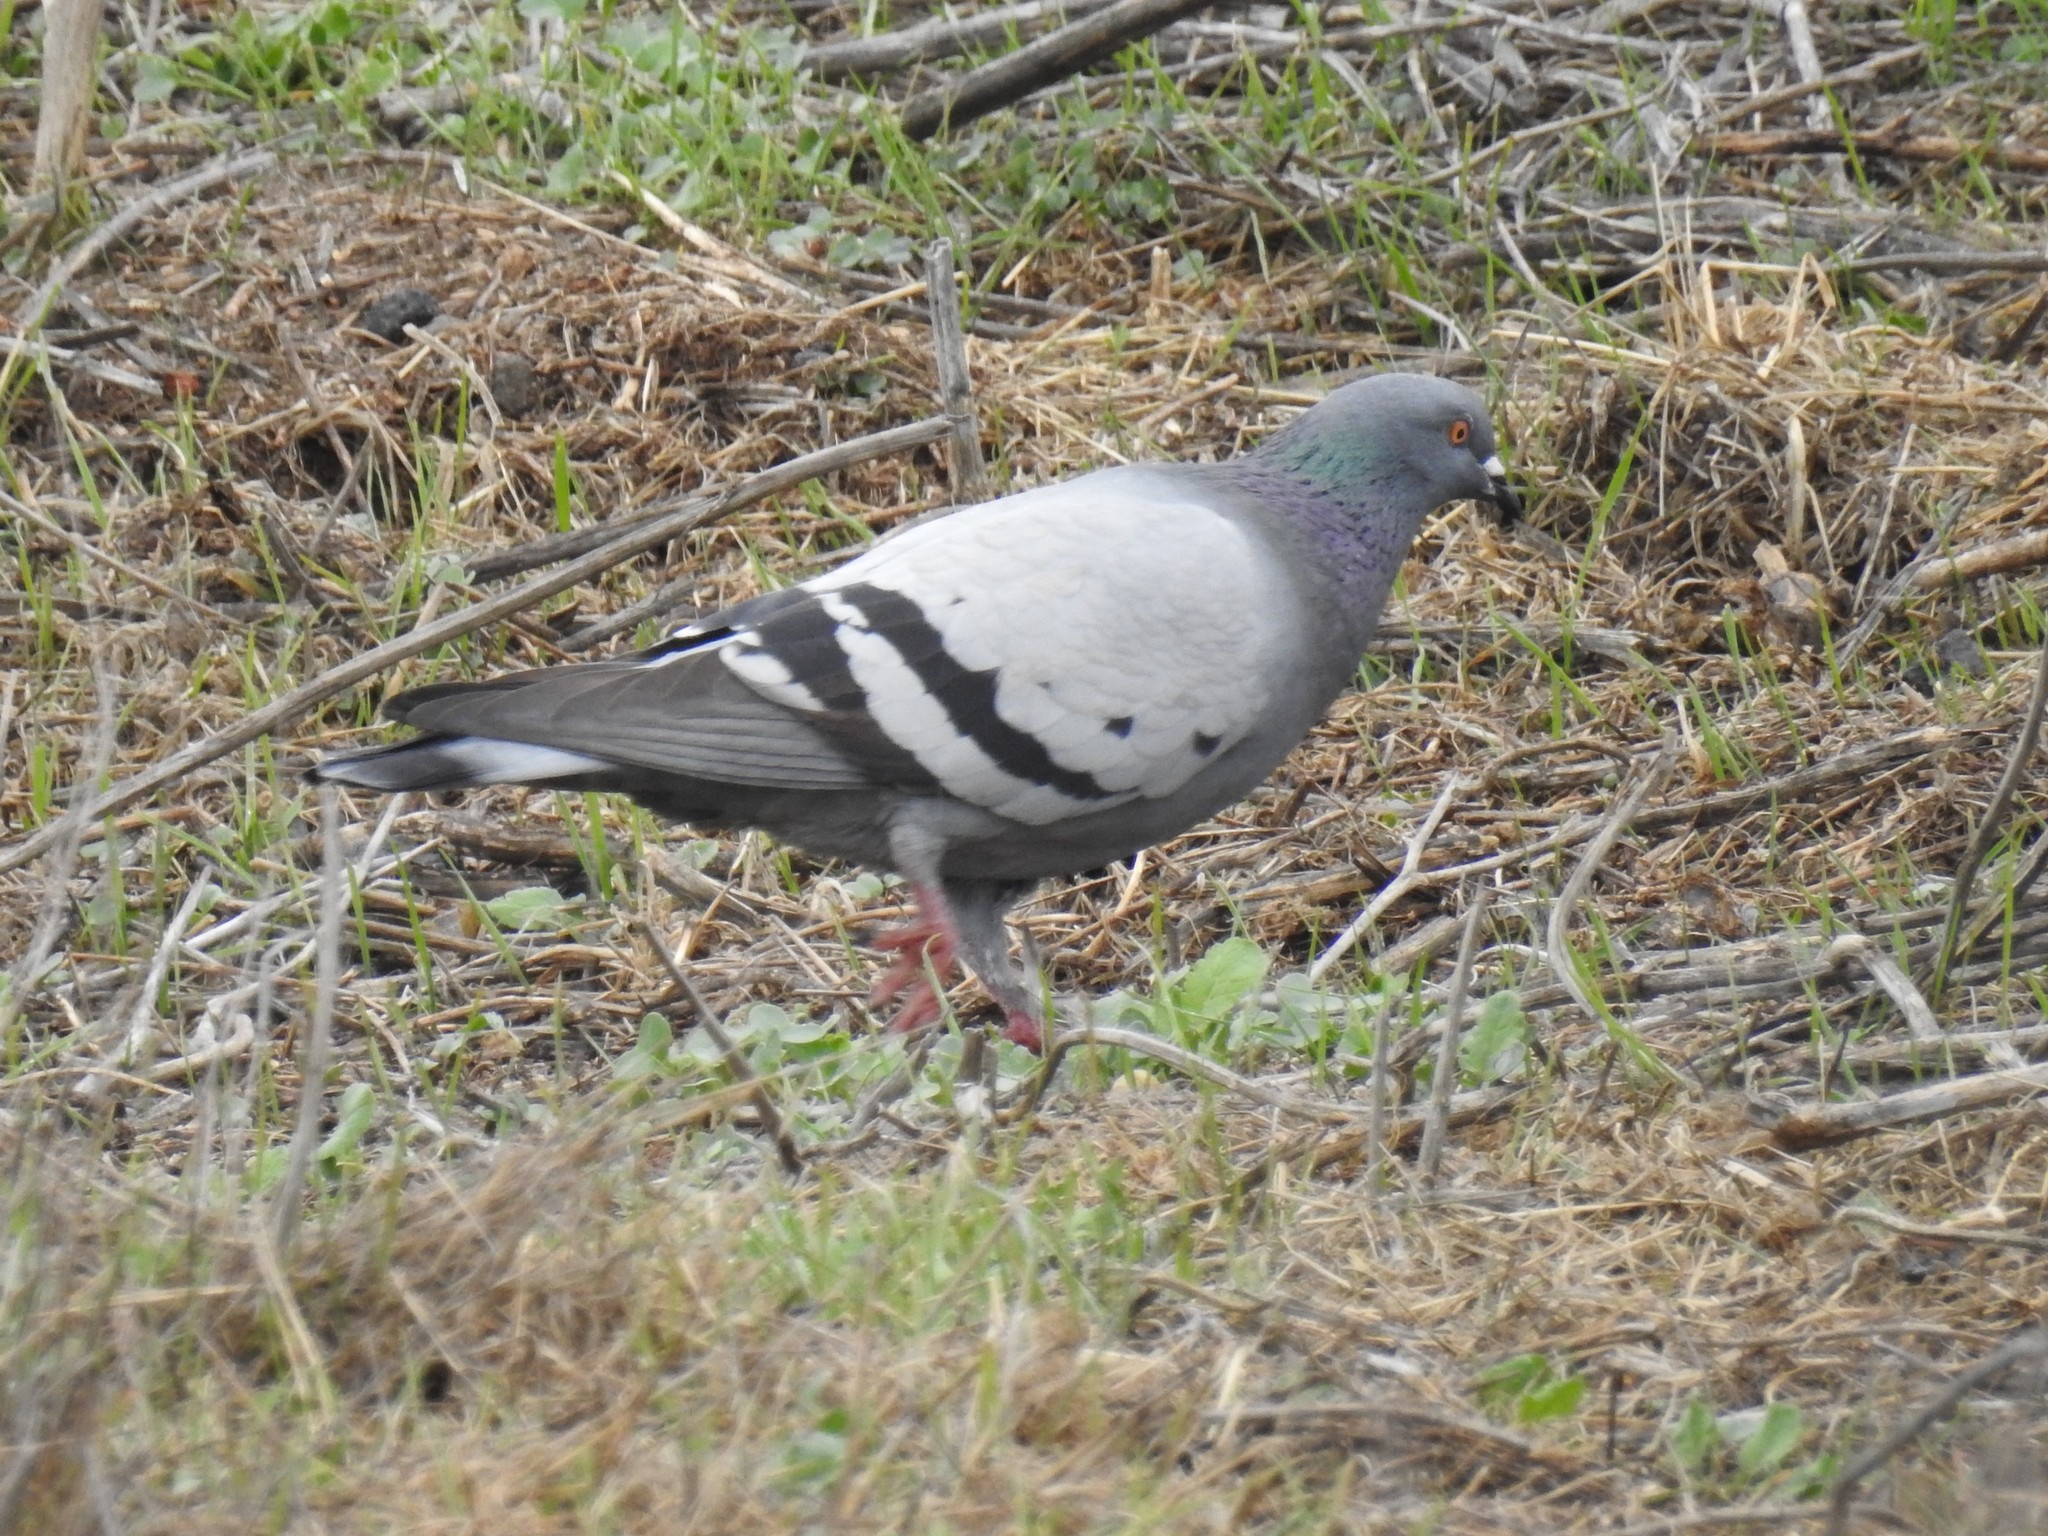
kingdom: Animalia
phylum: Chordata
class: Aves
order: Columbiformes
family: Columbidae
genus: Columba
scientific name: Columba livia
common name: Rock pigeon
